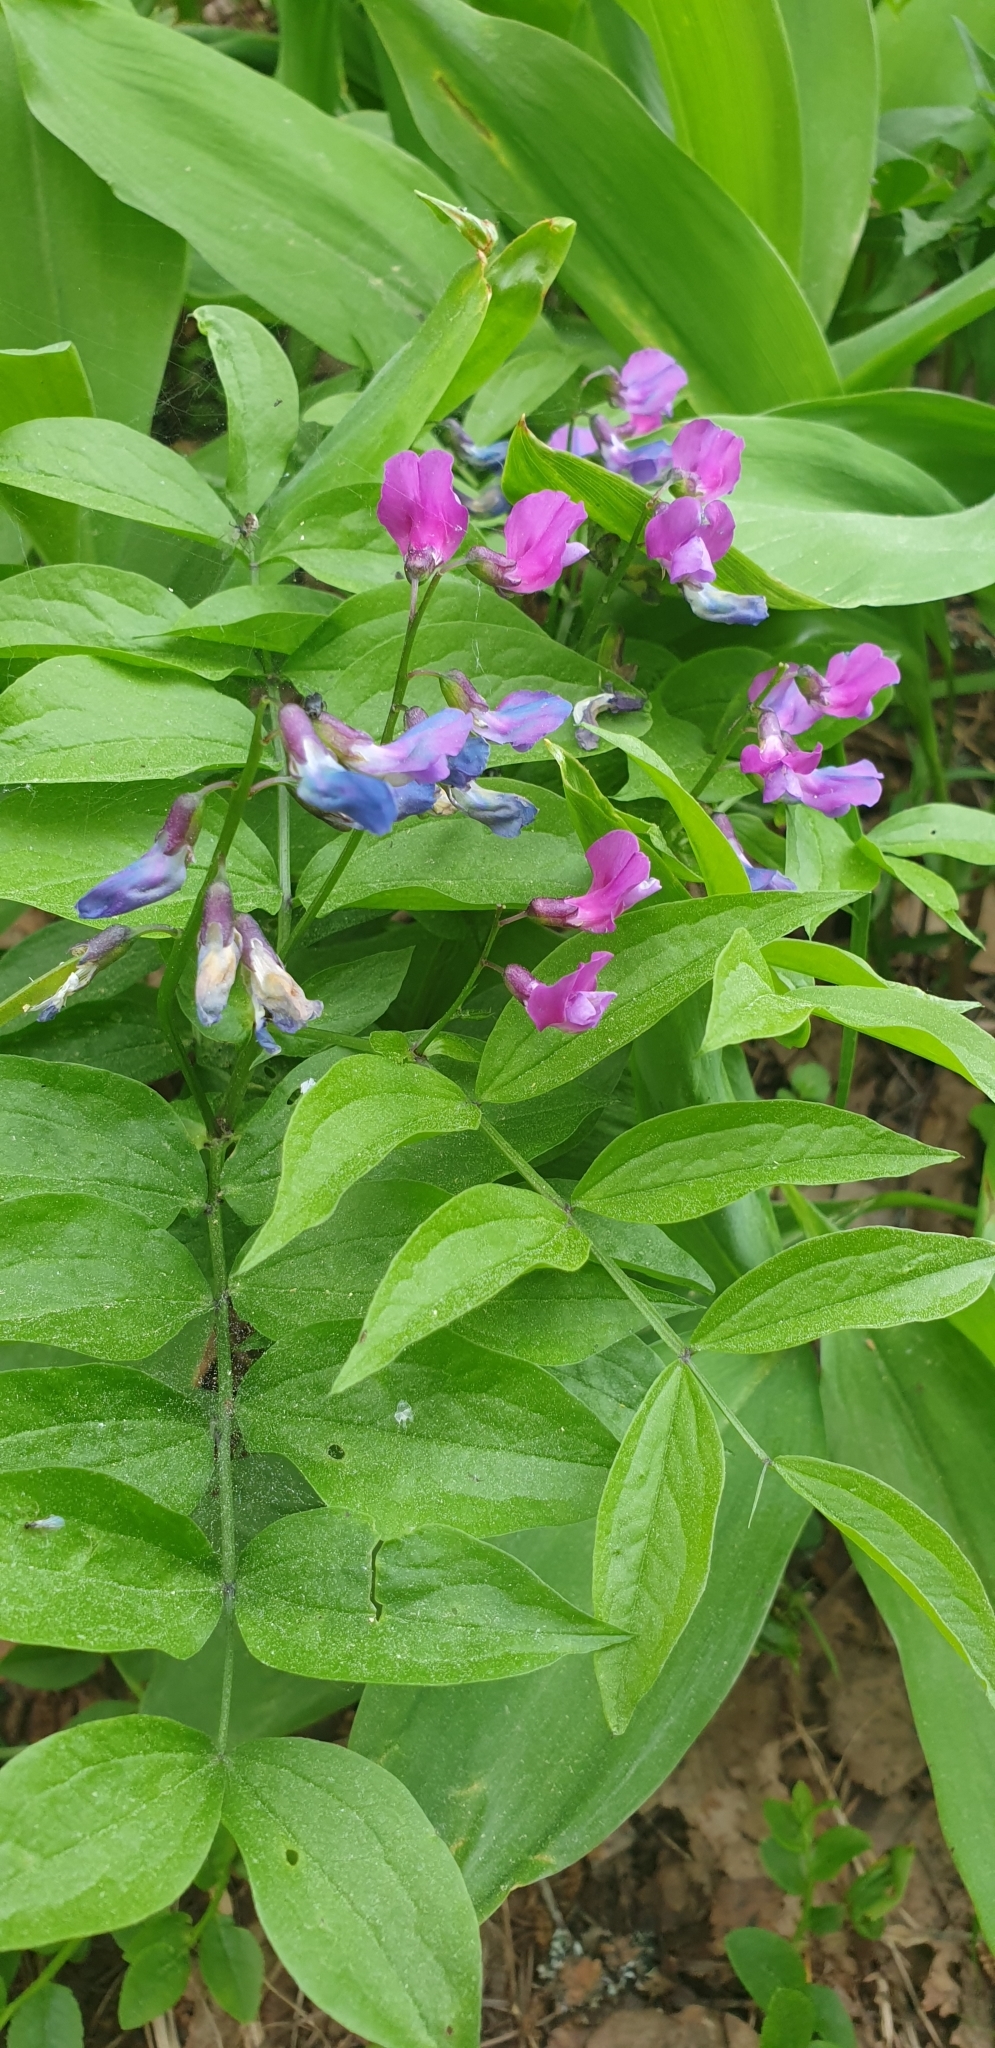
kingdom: Plantae
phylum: Tracheophyta
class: Magnoliopsida
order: Fabales
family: Fabaceae
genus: Lathyrus
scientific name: Lathyrus vernus
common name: Spring pea
